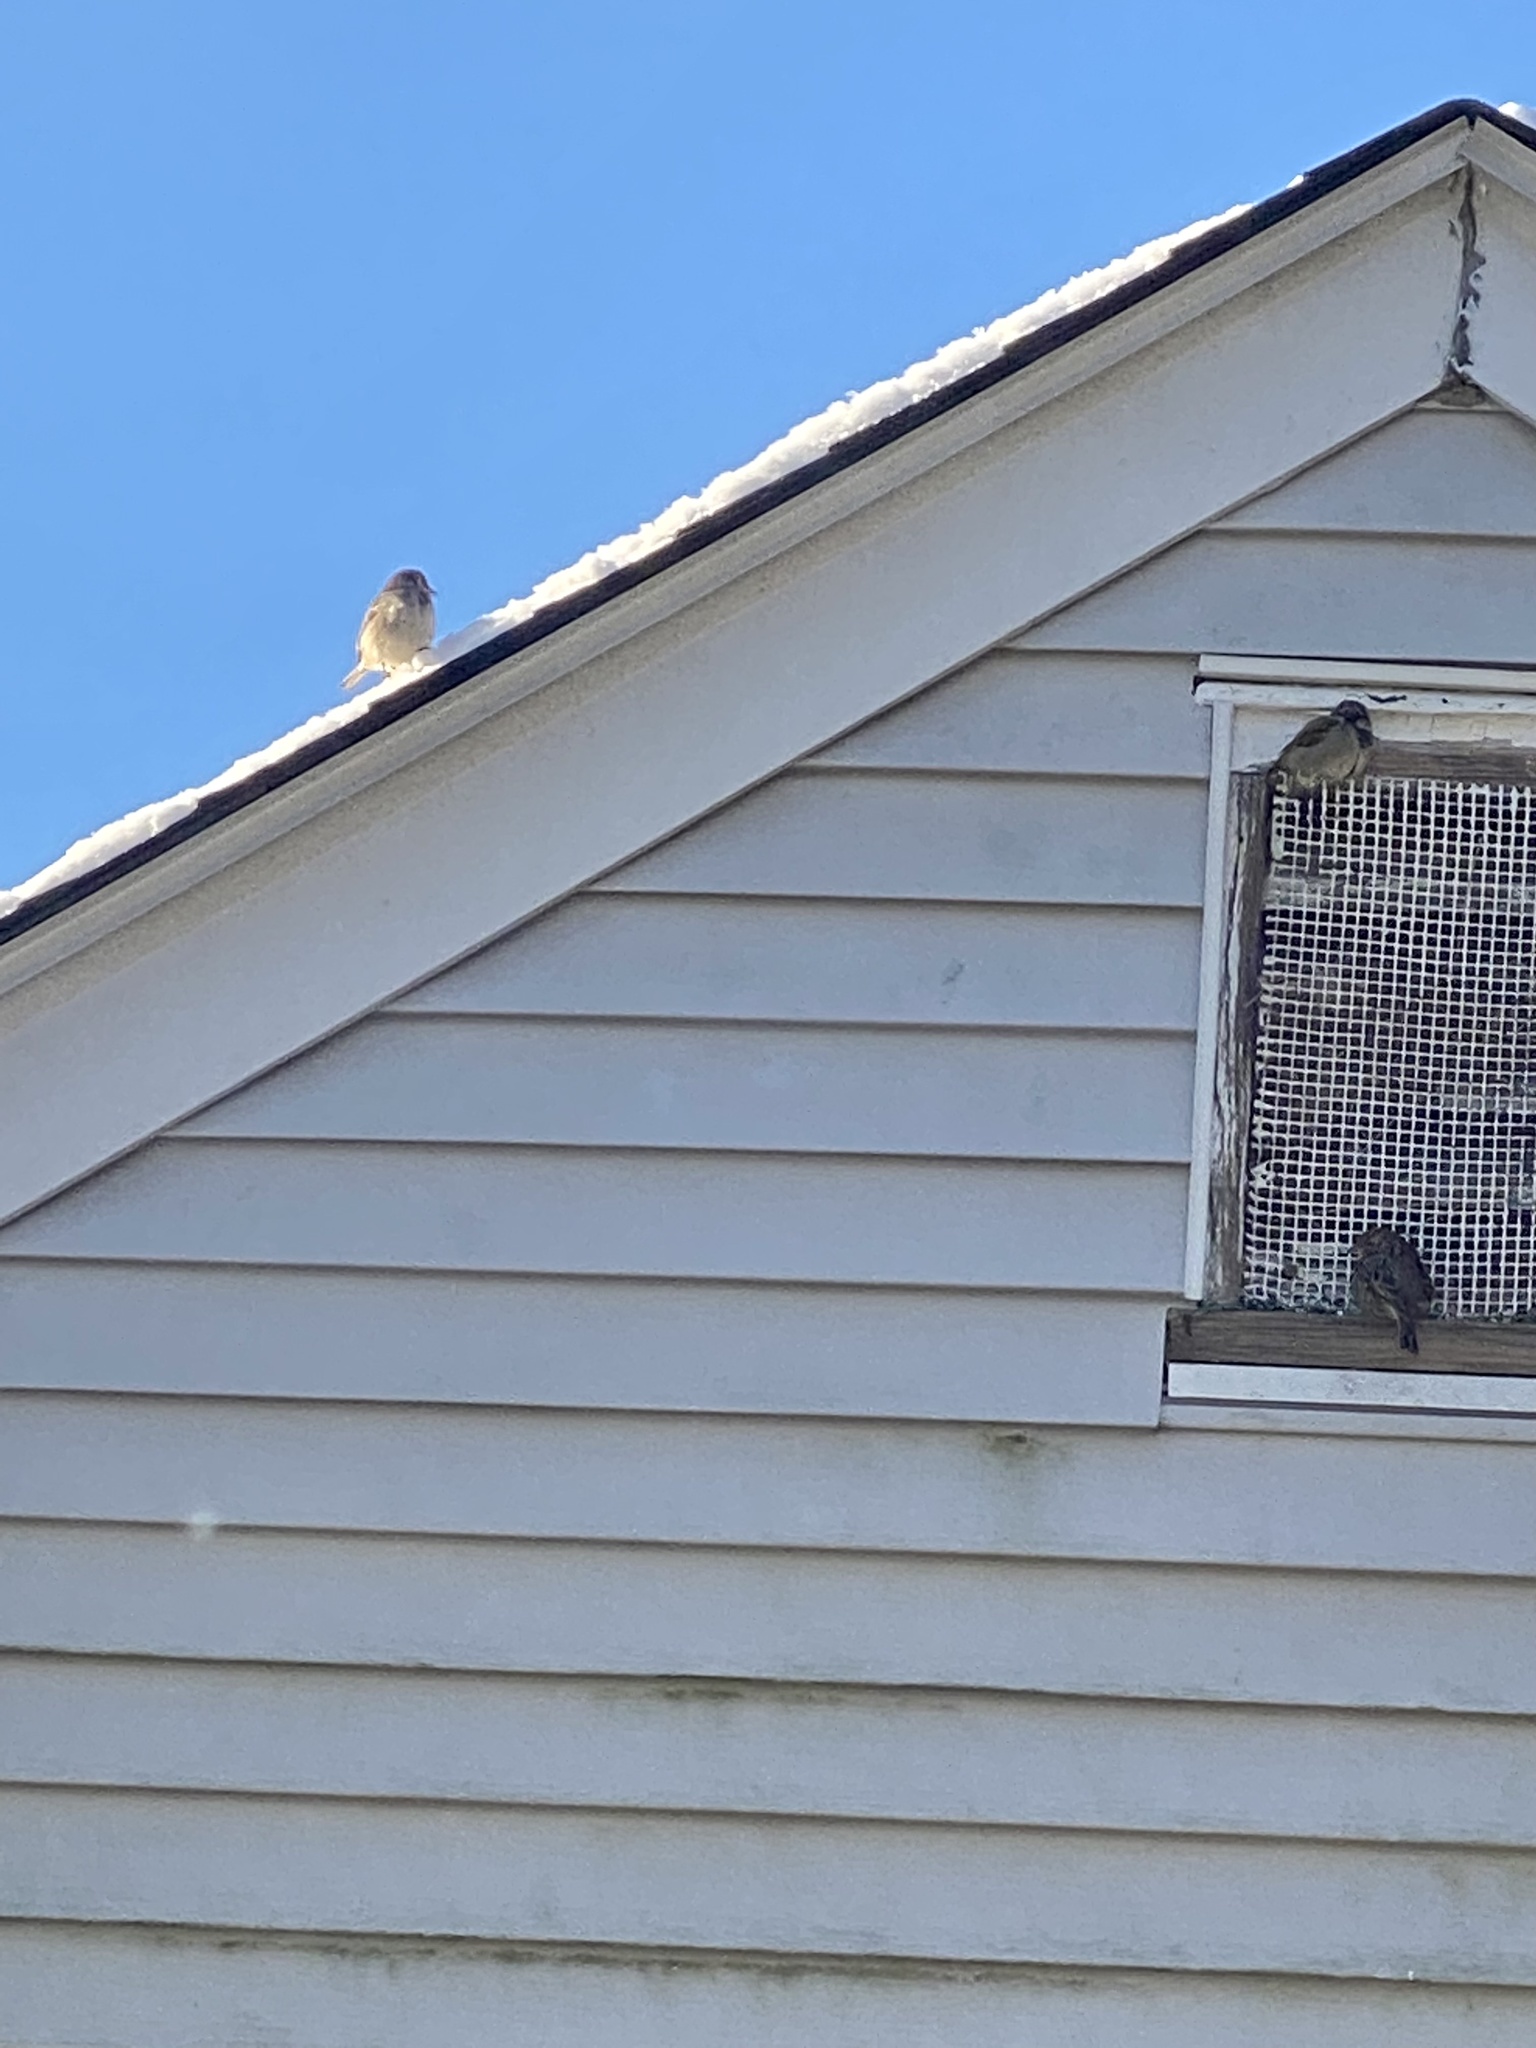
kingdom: Animalia
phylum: Chordata
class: Aves
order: Passeriformes
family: Passeridae
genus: Passer
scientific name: Passer domesticus
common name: House sparrow
